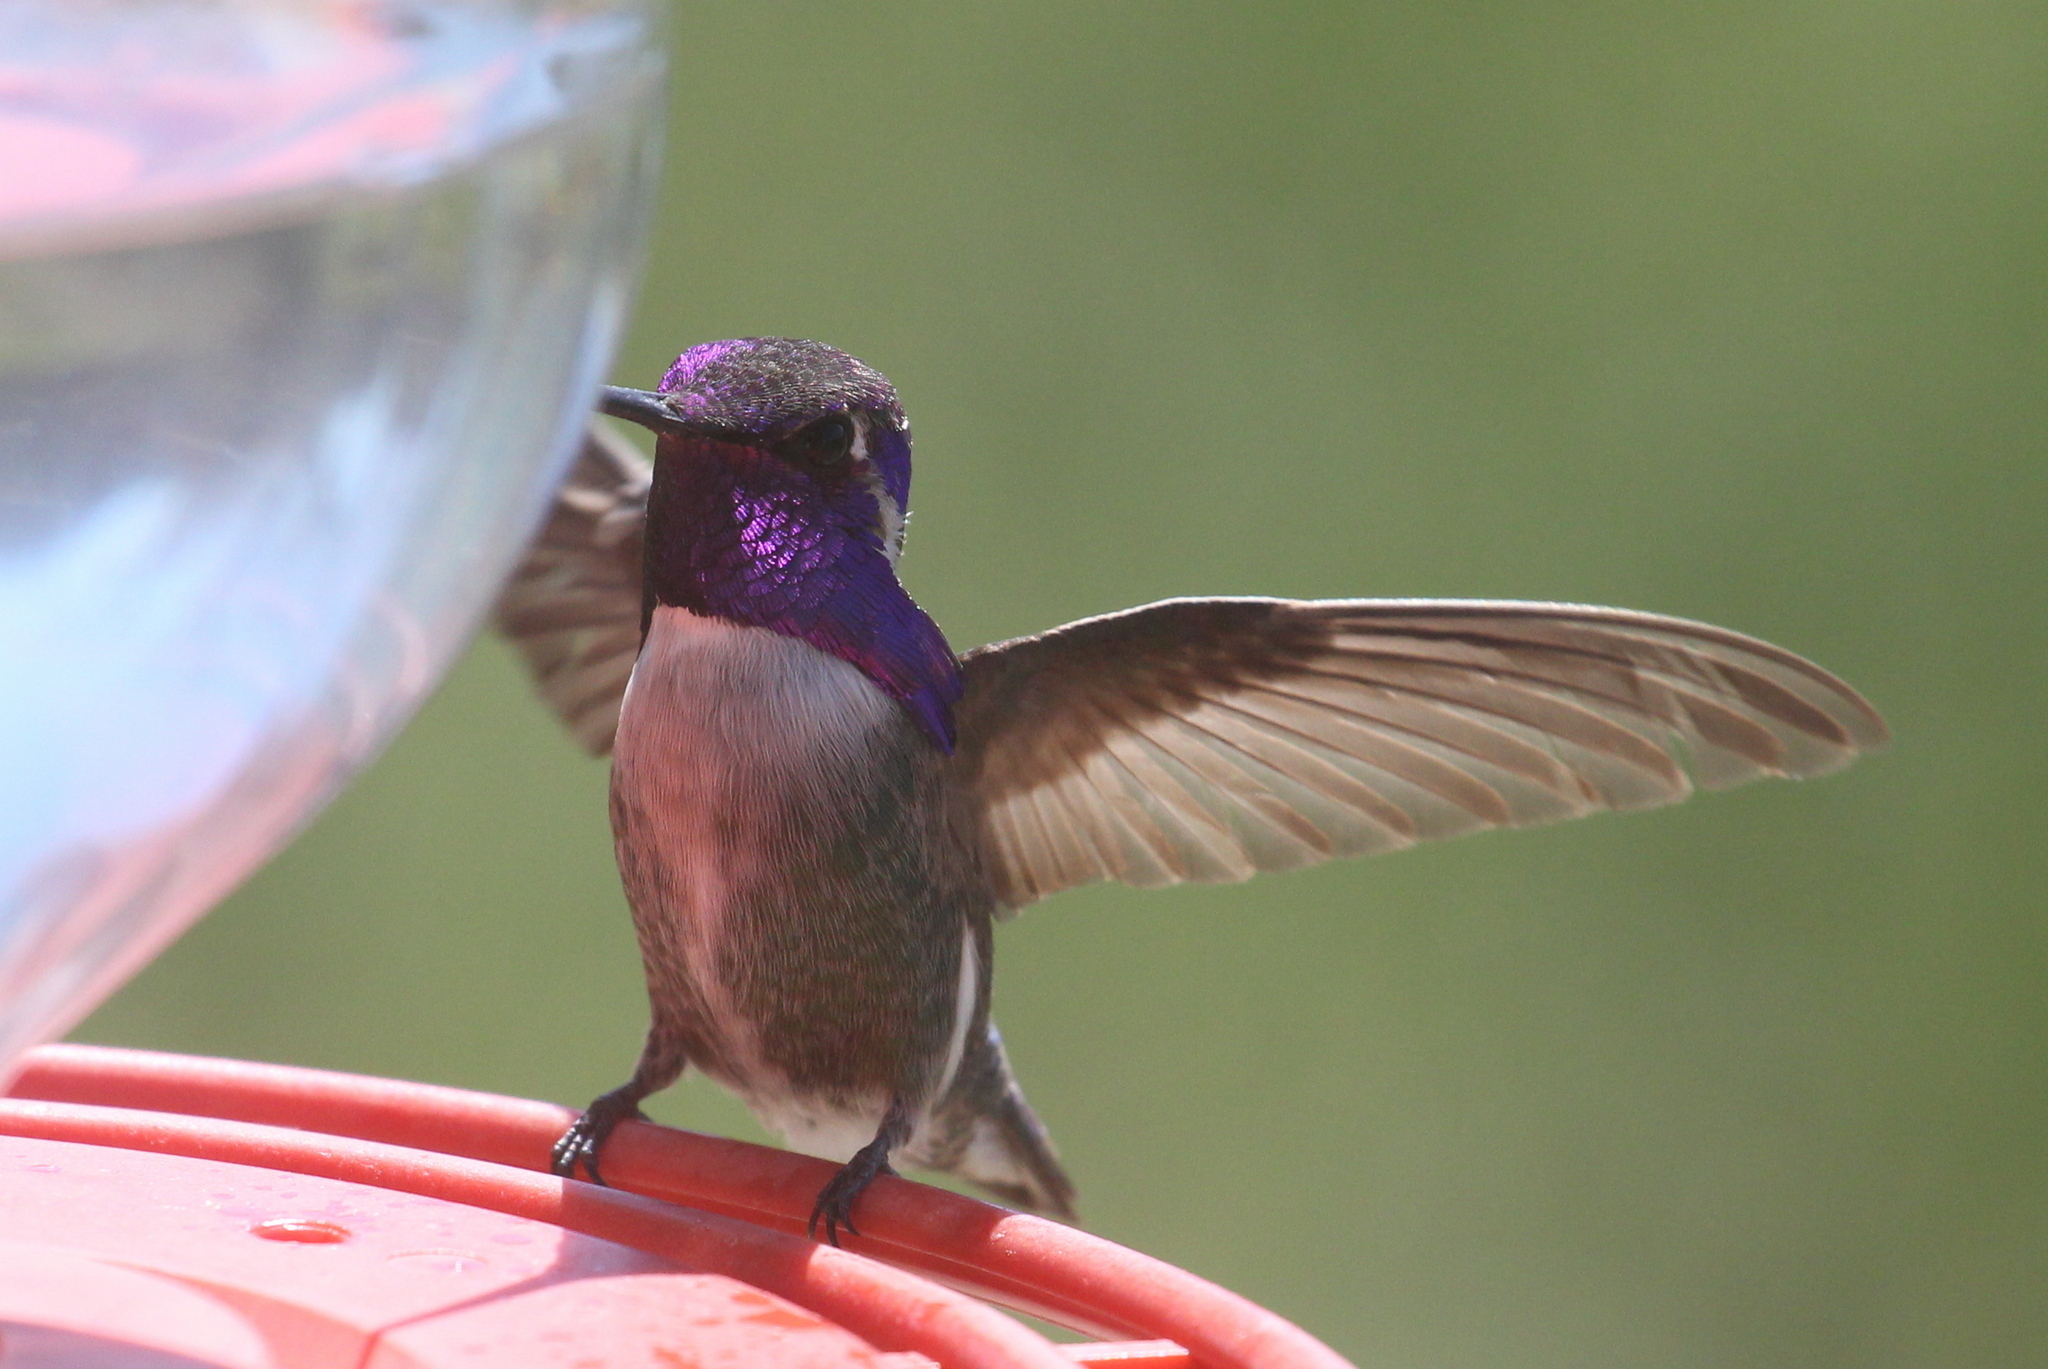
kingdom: Animalia
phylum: Chordata
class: Aves
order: Apodiformes
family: Trochilidae
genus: Calypte
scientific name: Calypte costae
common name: Costa's hummingbird
